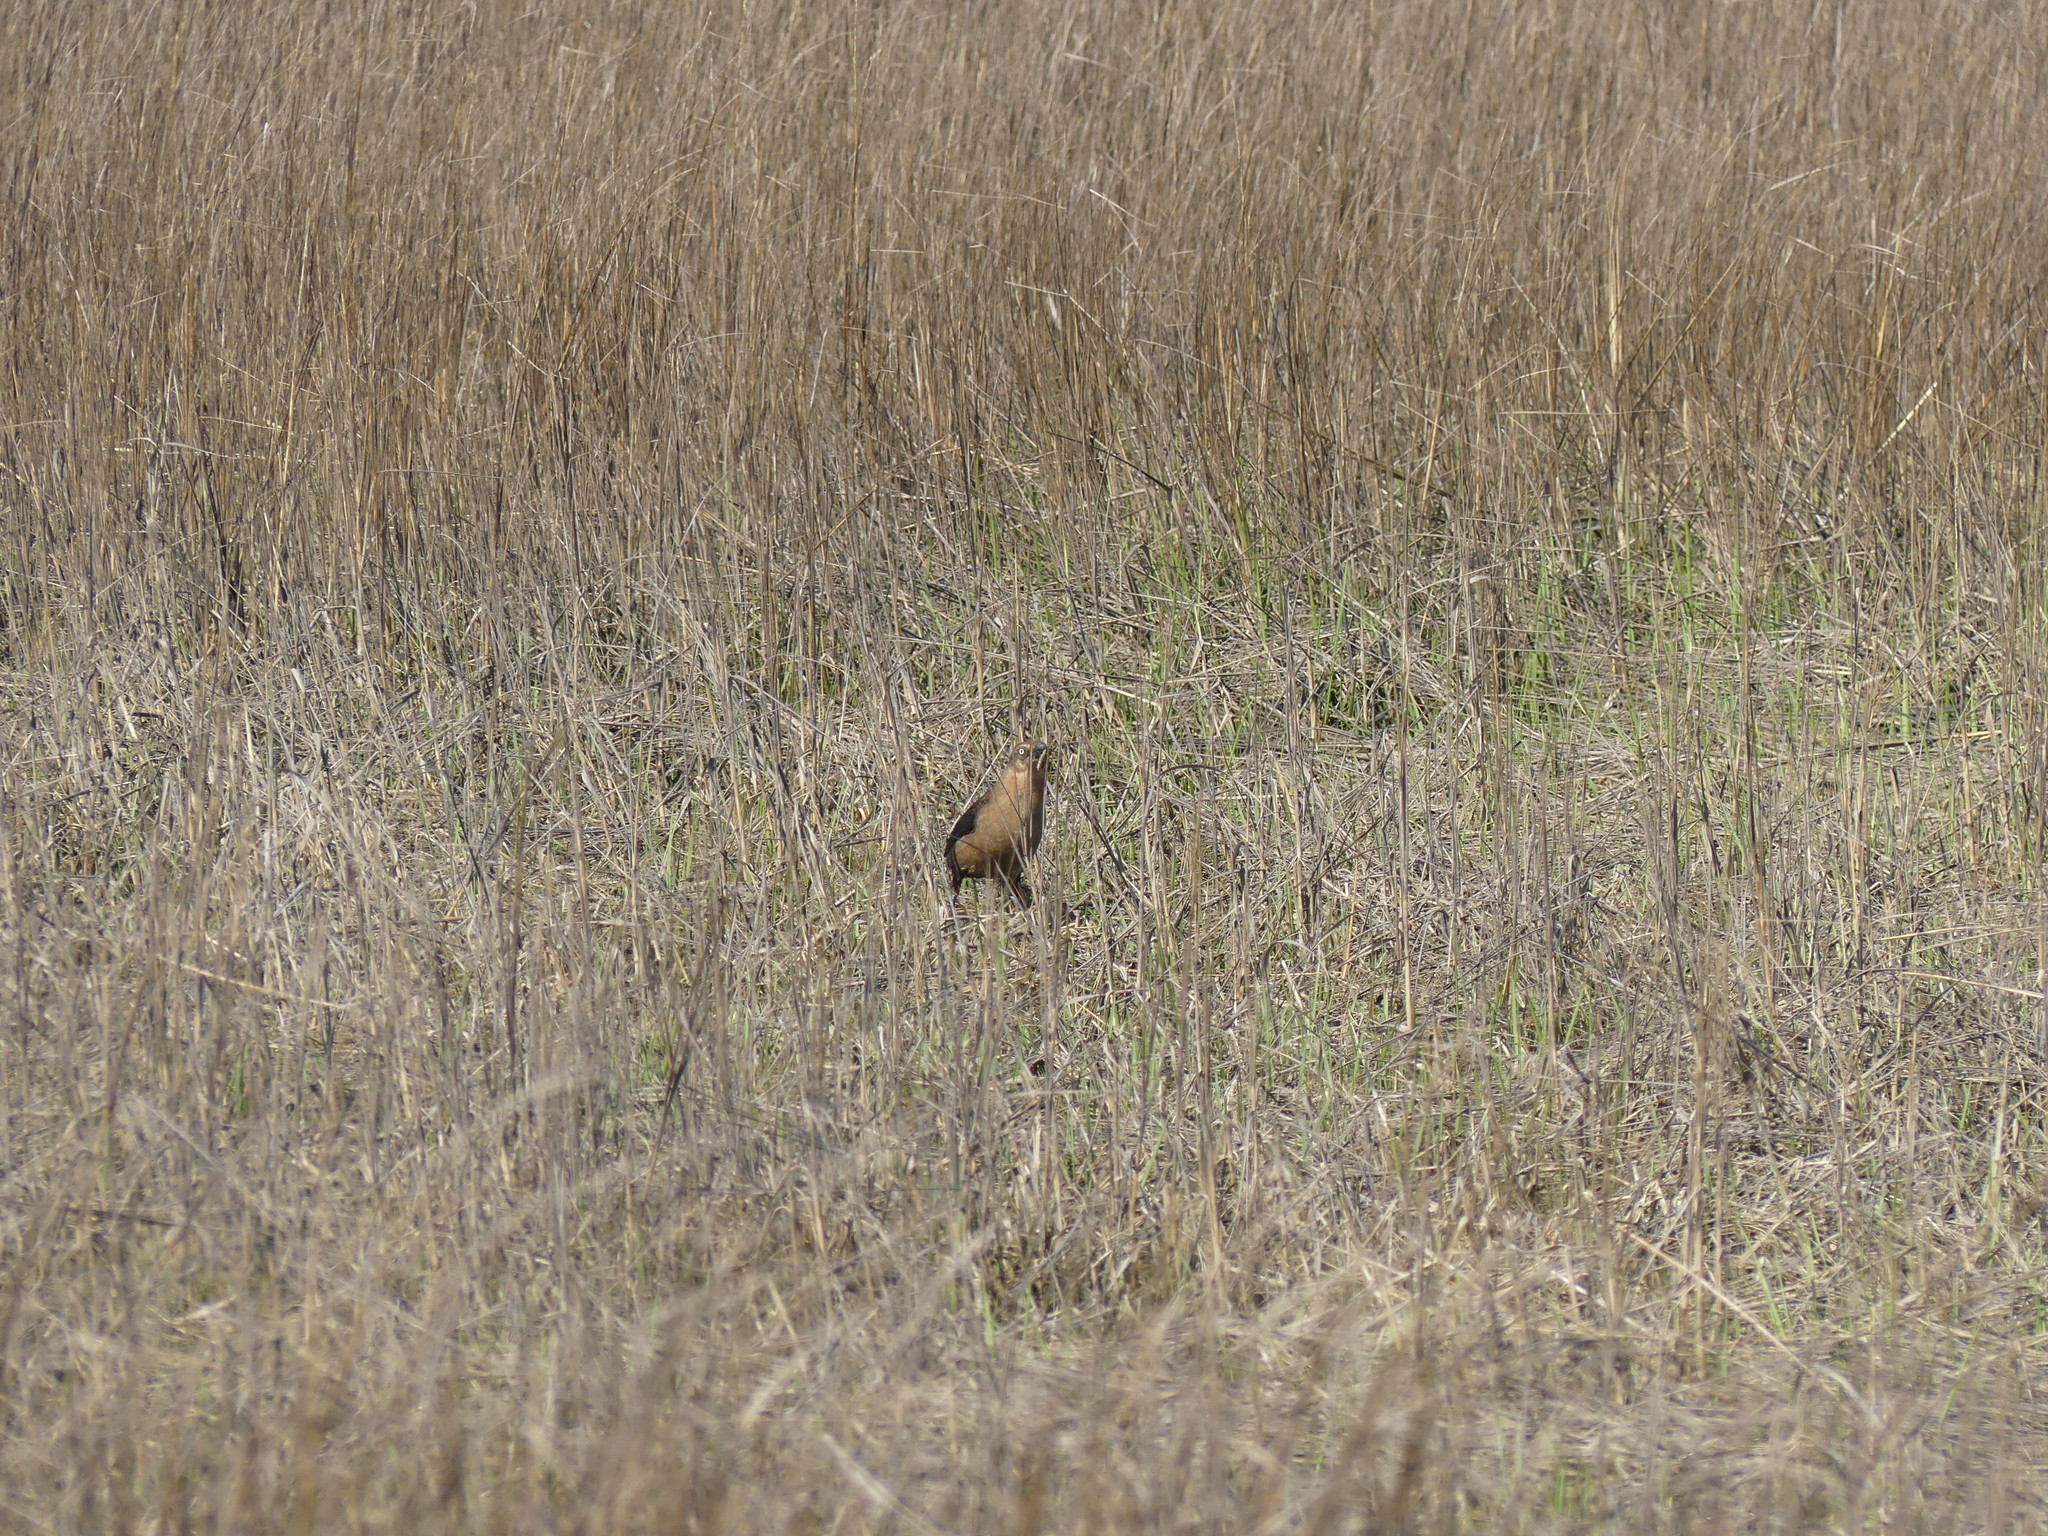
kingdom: Animalia
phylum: Chordata
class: Aves
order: Passeriformes
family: Icteridae
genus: Quiscalus
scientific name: Quiscalus major
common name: Boat-tailed grackle
